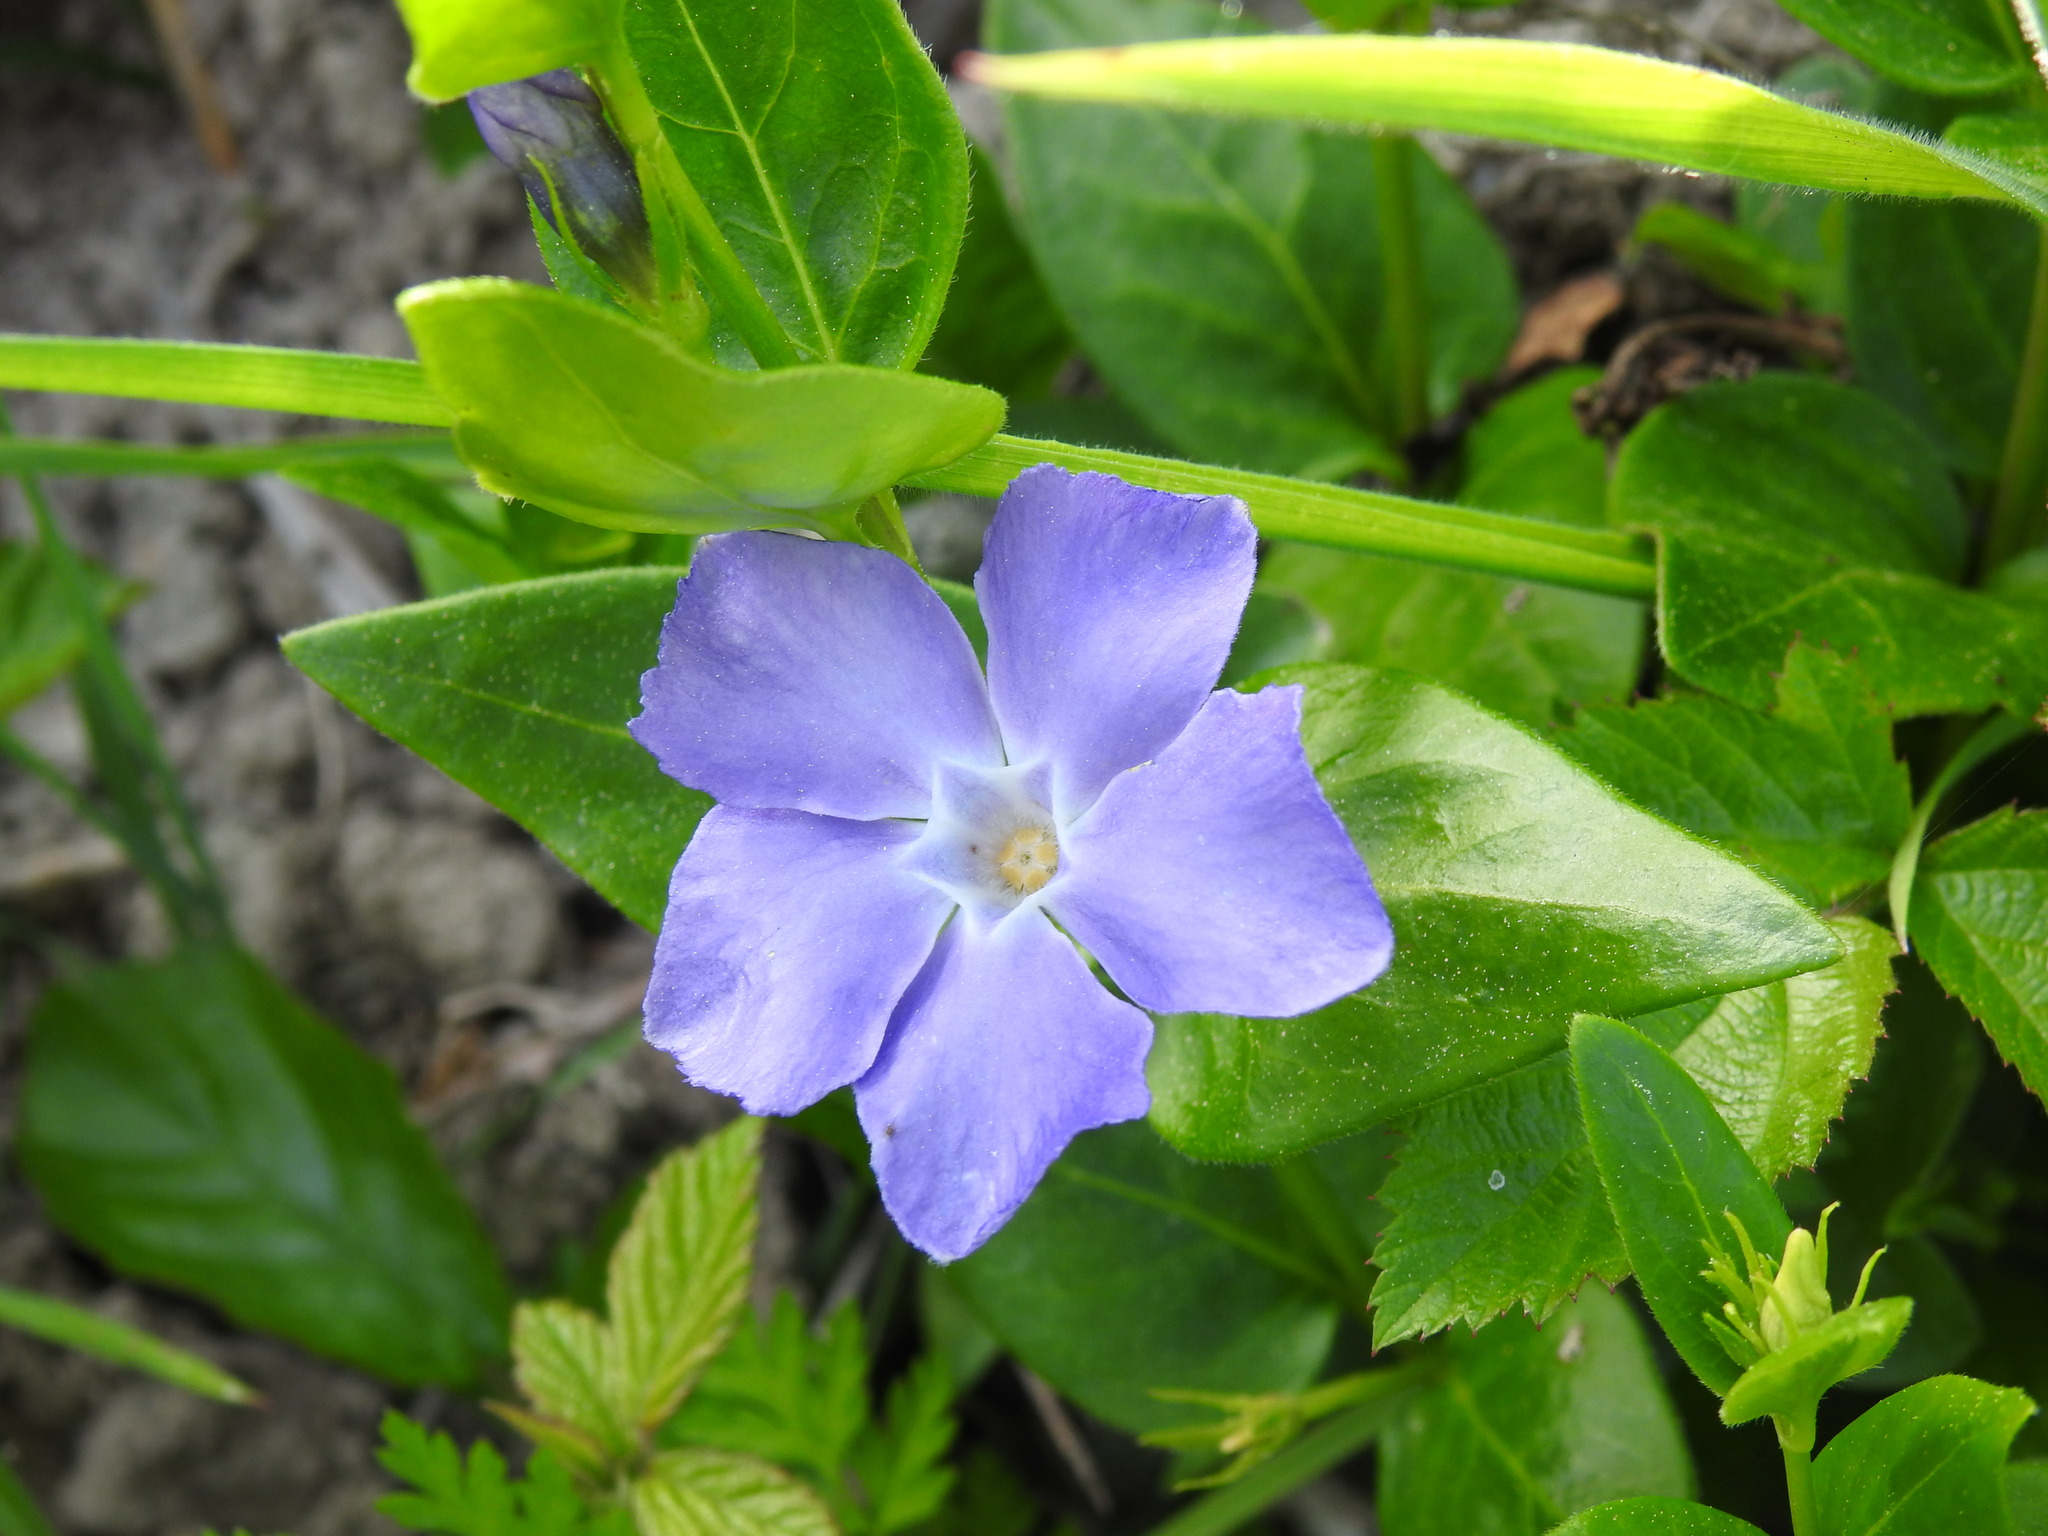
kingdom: Plantae
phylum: Tracheophyta
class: Magnoliopsida
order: Gentianales
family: Apocynaceae
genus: Vinca
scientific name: Vinca major
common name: Greater periwinkle
